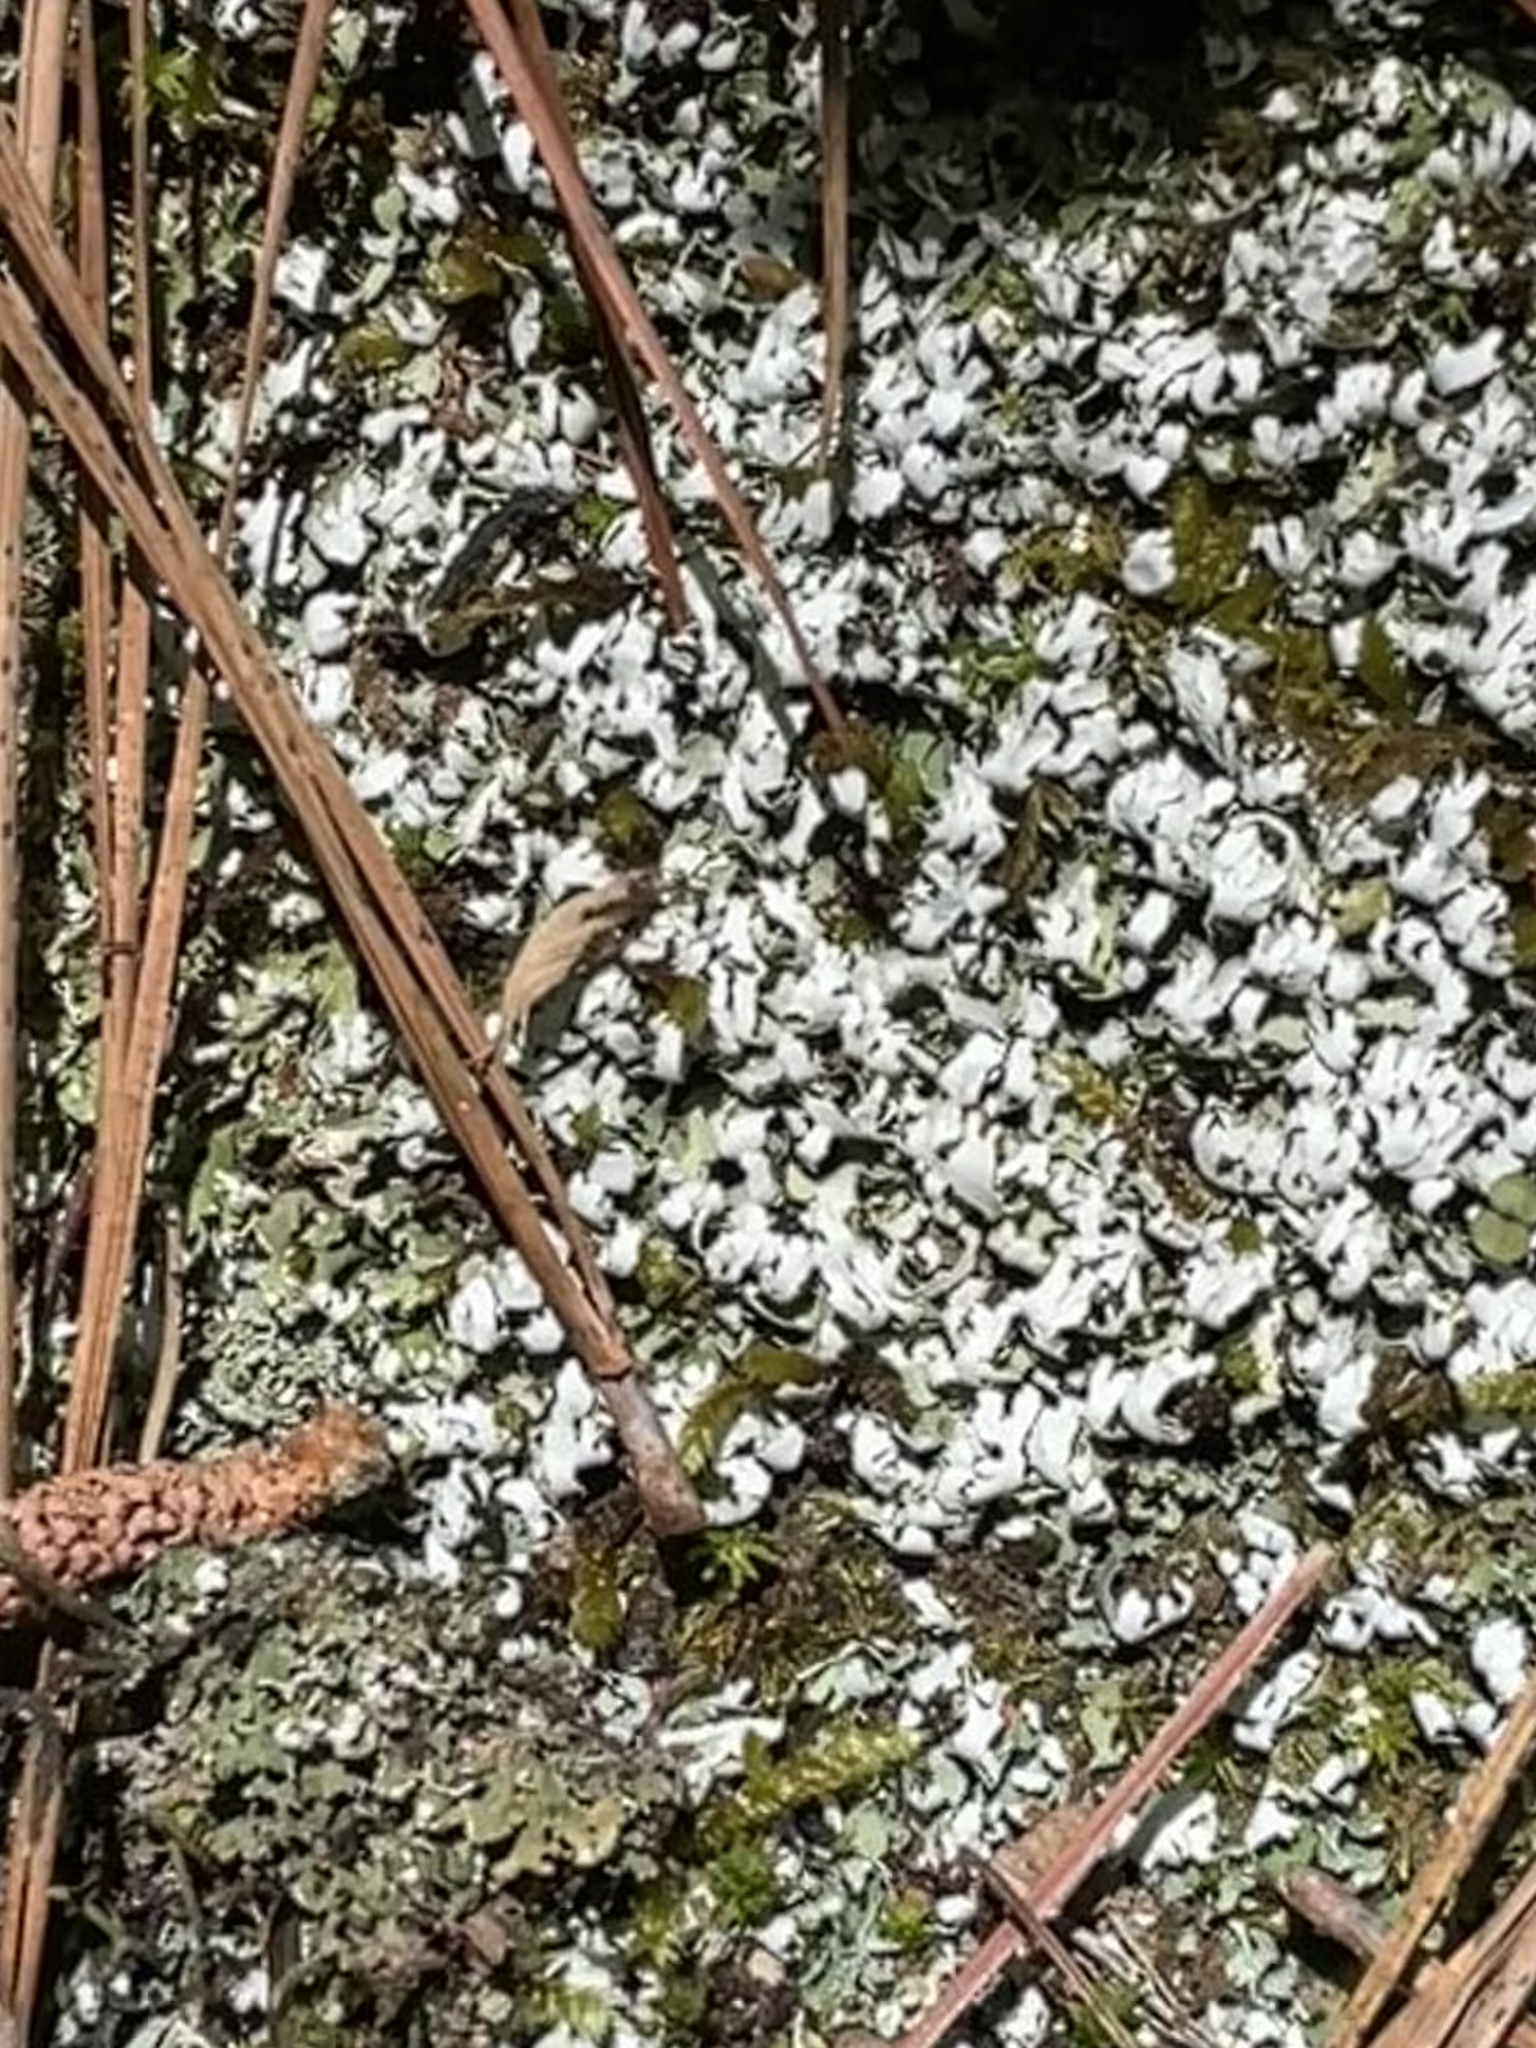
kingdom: Fungi
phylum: Ascomycota
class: Lecanoromycetes
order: Lecanorales
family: Cladoniaceae
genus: Cladonia
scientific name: Cladonia apodocarpa
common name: Stalkless cladonia
